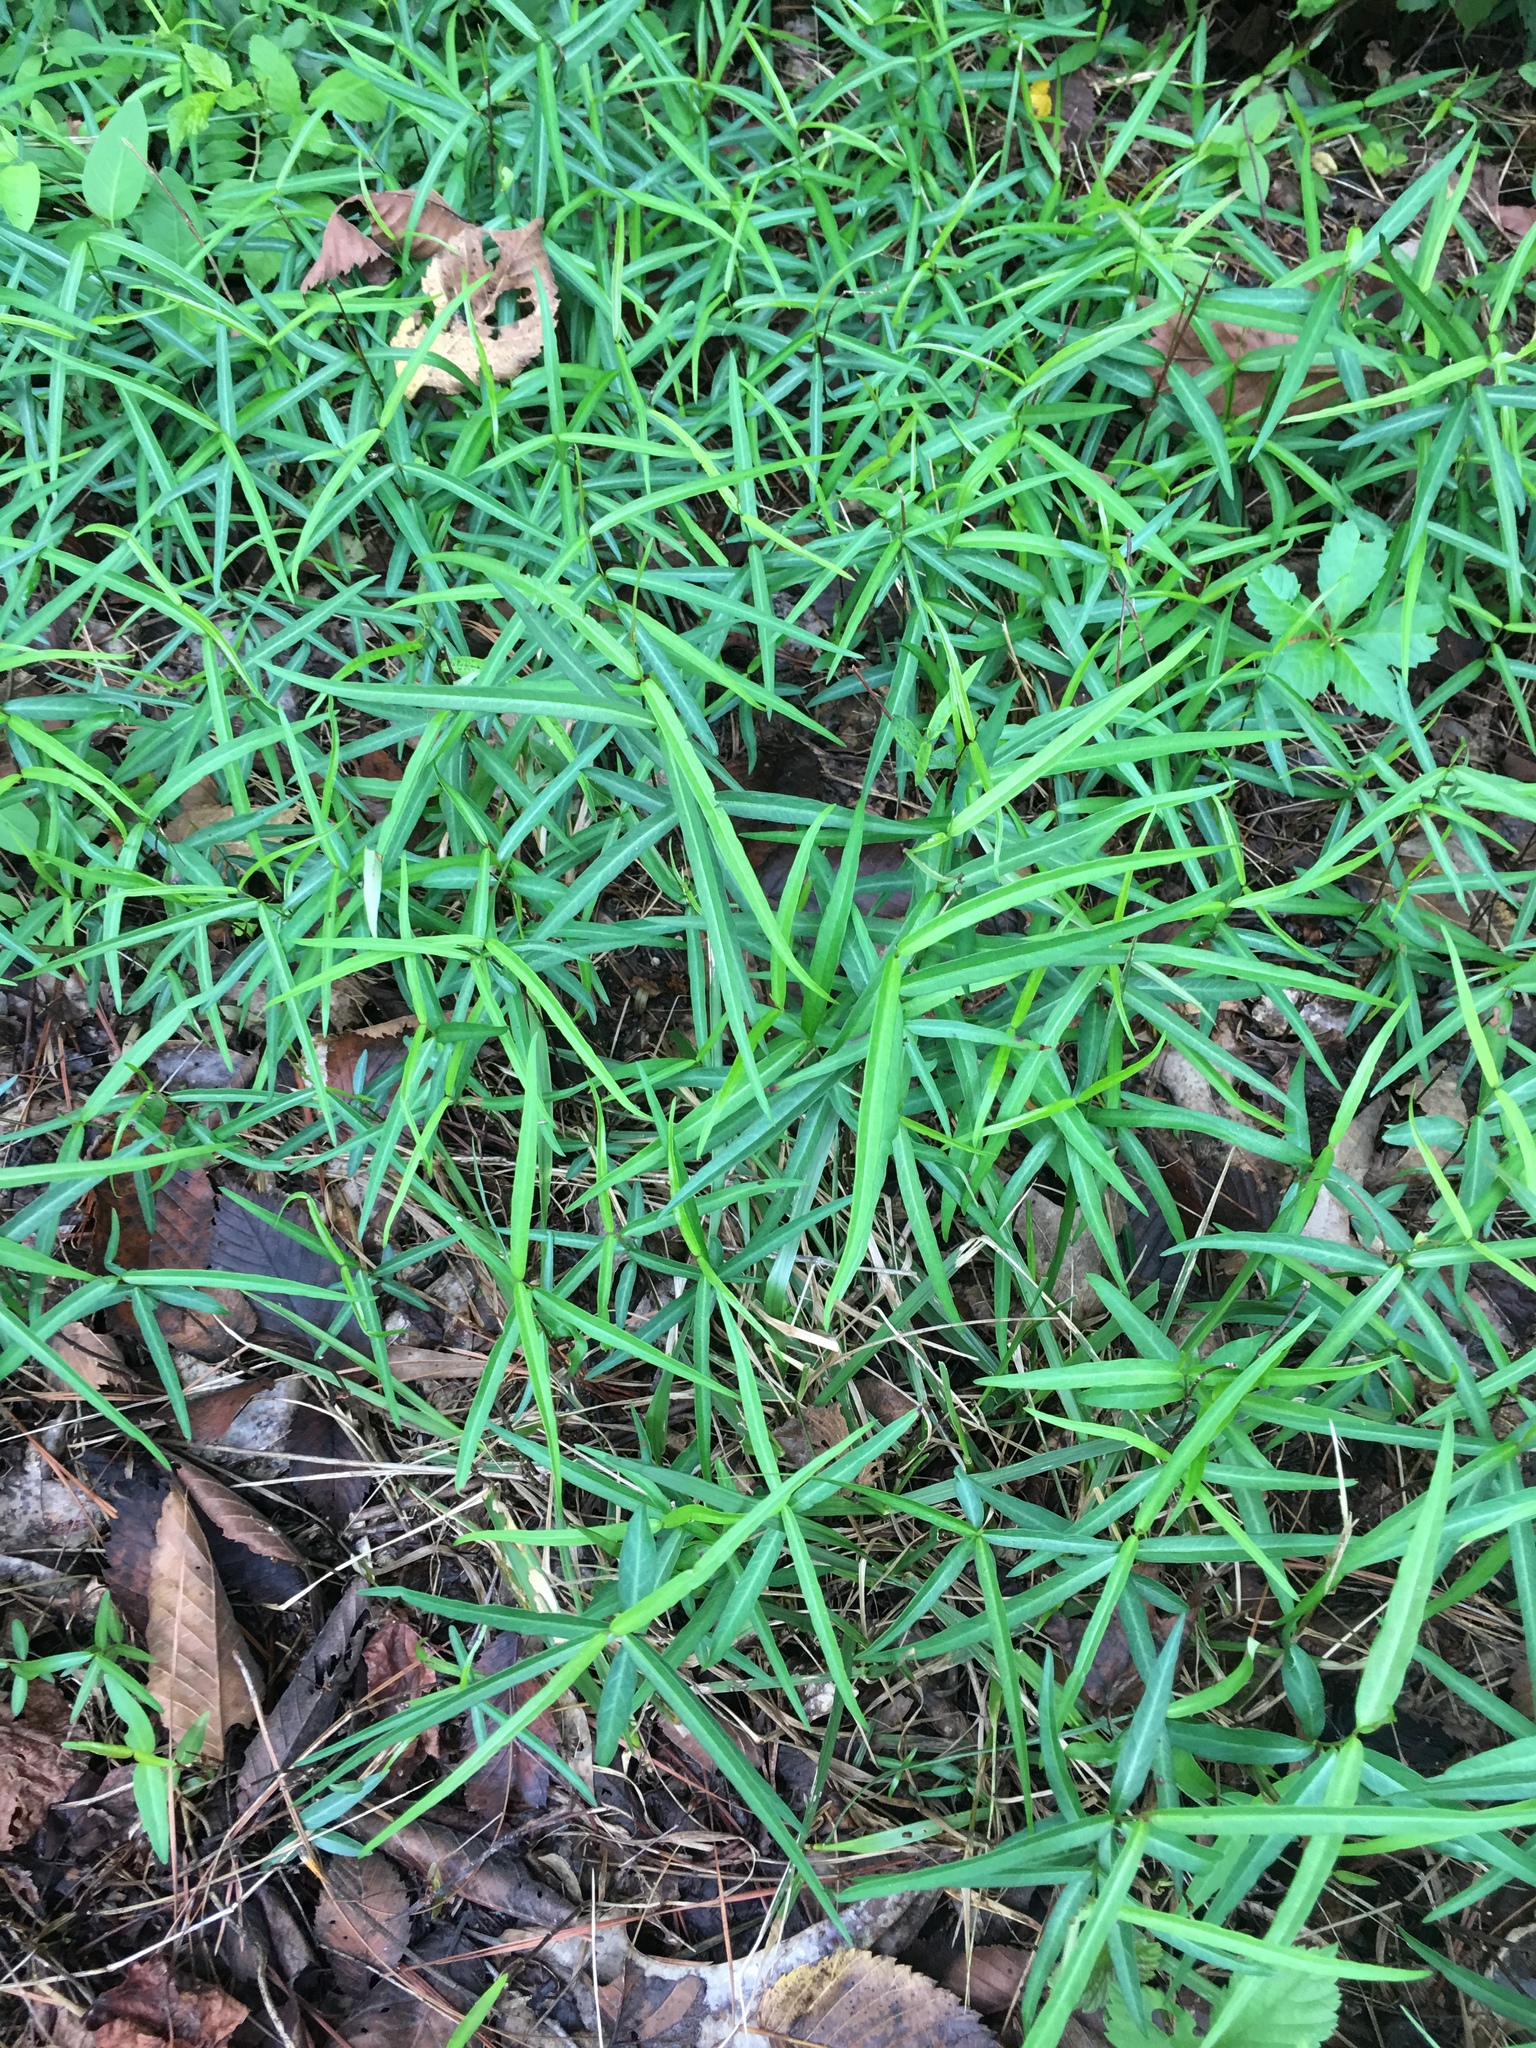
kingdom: Plantae
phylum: Tracheophyta
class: Magnoliopsida
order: Gentianales
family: Apocynaceae
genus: Thyrsanthella
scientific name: Thyrsanthella difformis
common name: Climbing dogbane
